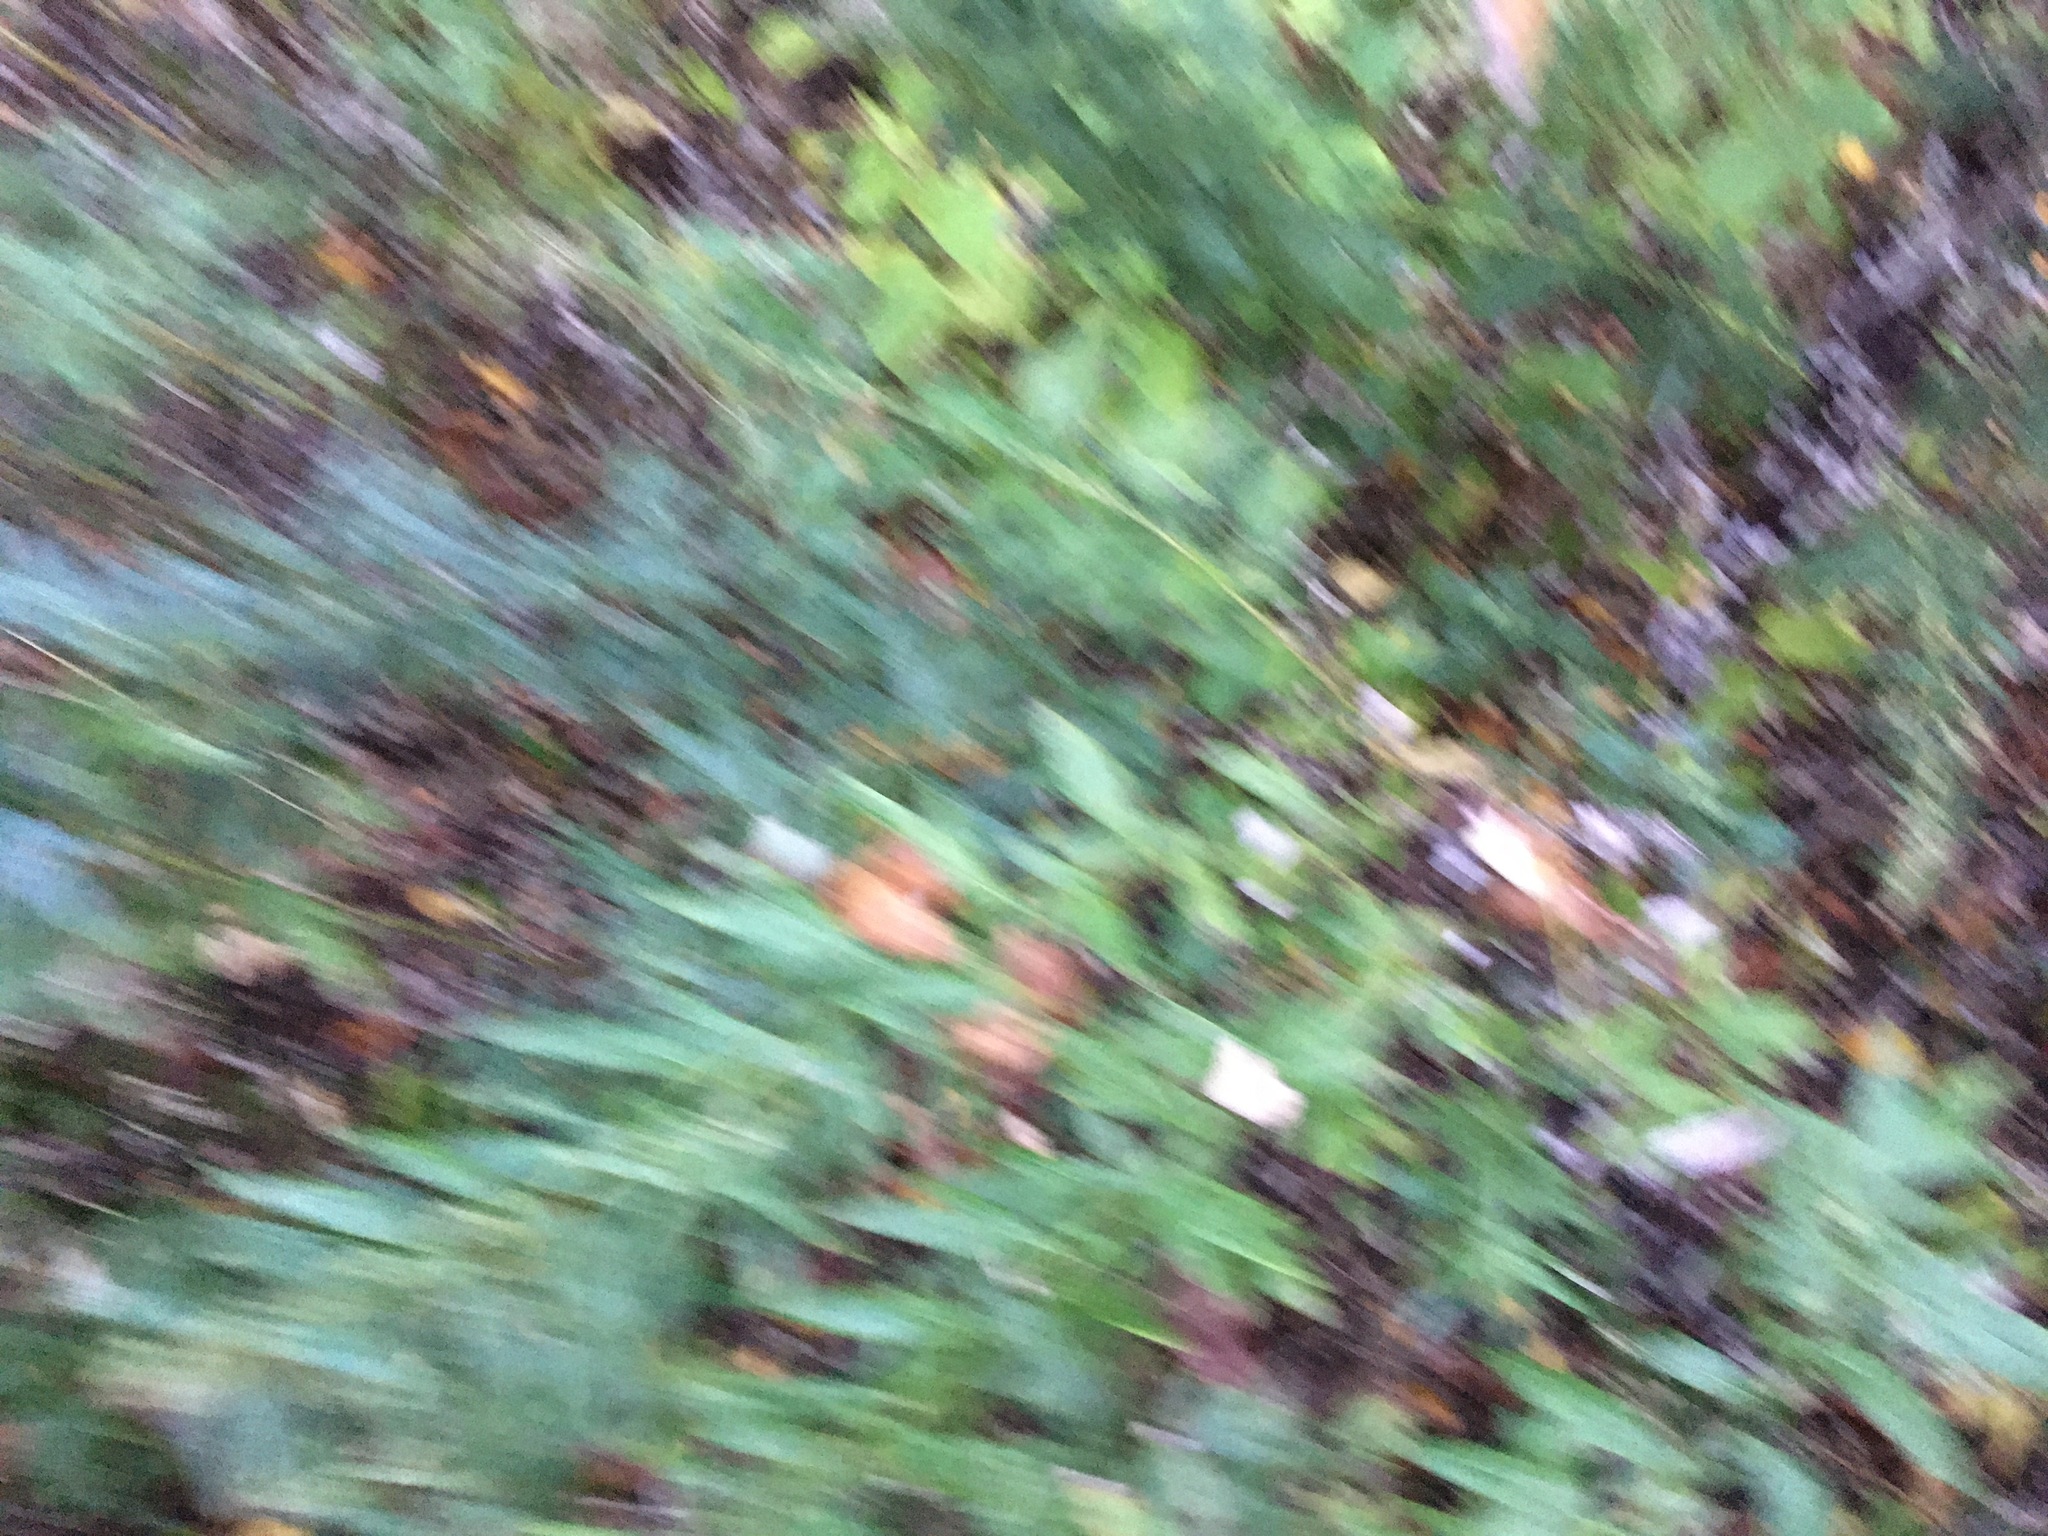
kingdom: Plantae
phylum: Tracheophyta
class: Magnoliopsida
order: Asterales
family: Asteraceae
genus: Artemisia
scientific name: Artemisia vulgaris
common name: Mugwort
